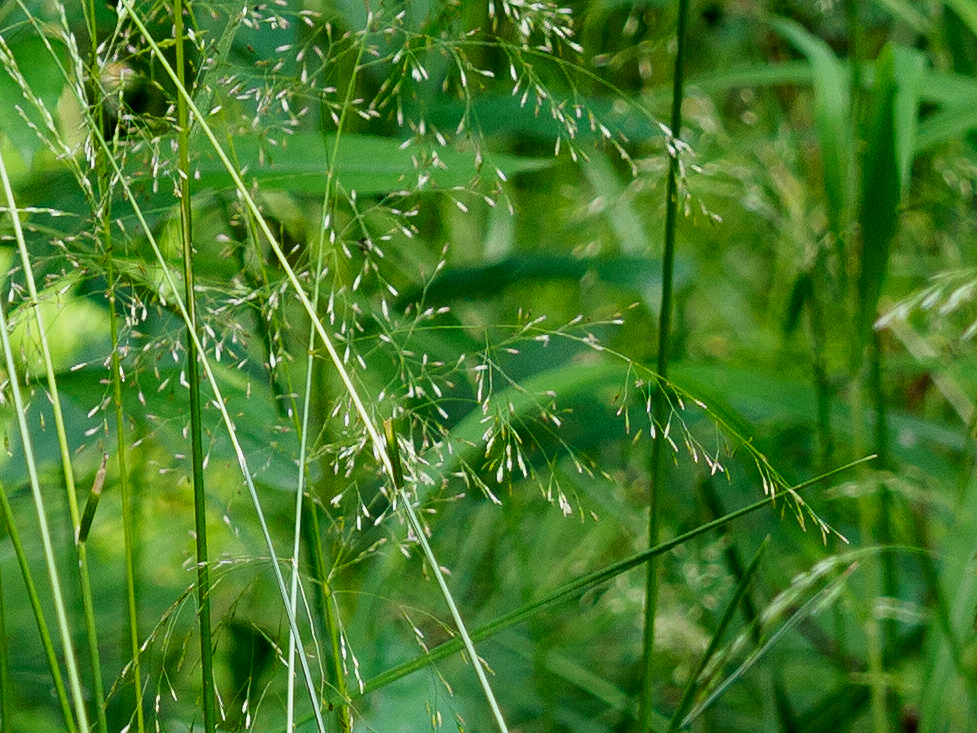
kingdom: Plantae
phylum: Tracheophyta
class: Liliopsida
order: Poales
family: Poaceae
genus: Deschampsia
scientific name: Deschampsia cespitosa
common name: Tufted hair-grass
